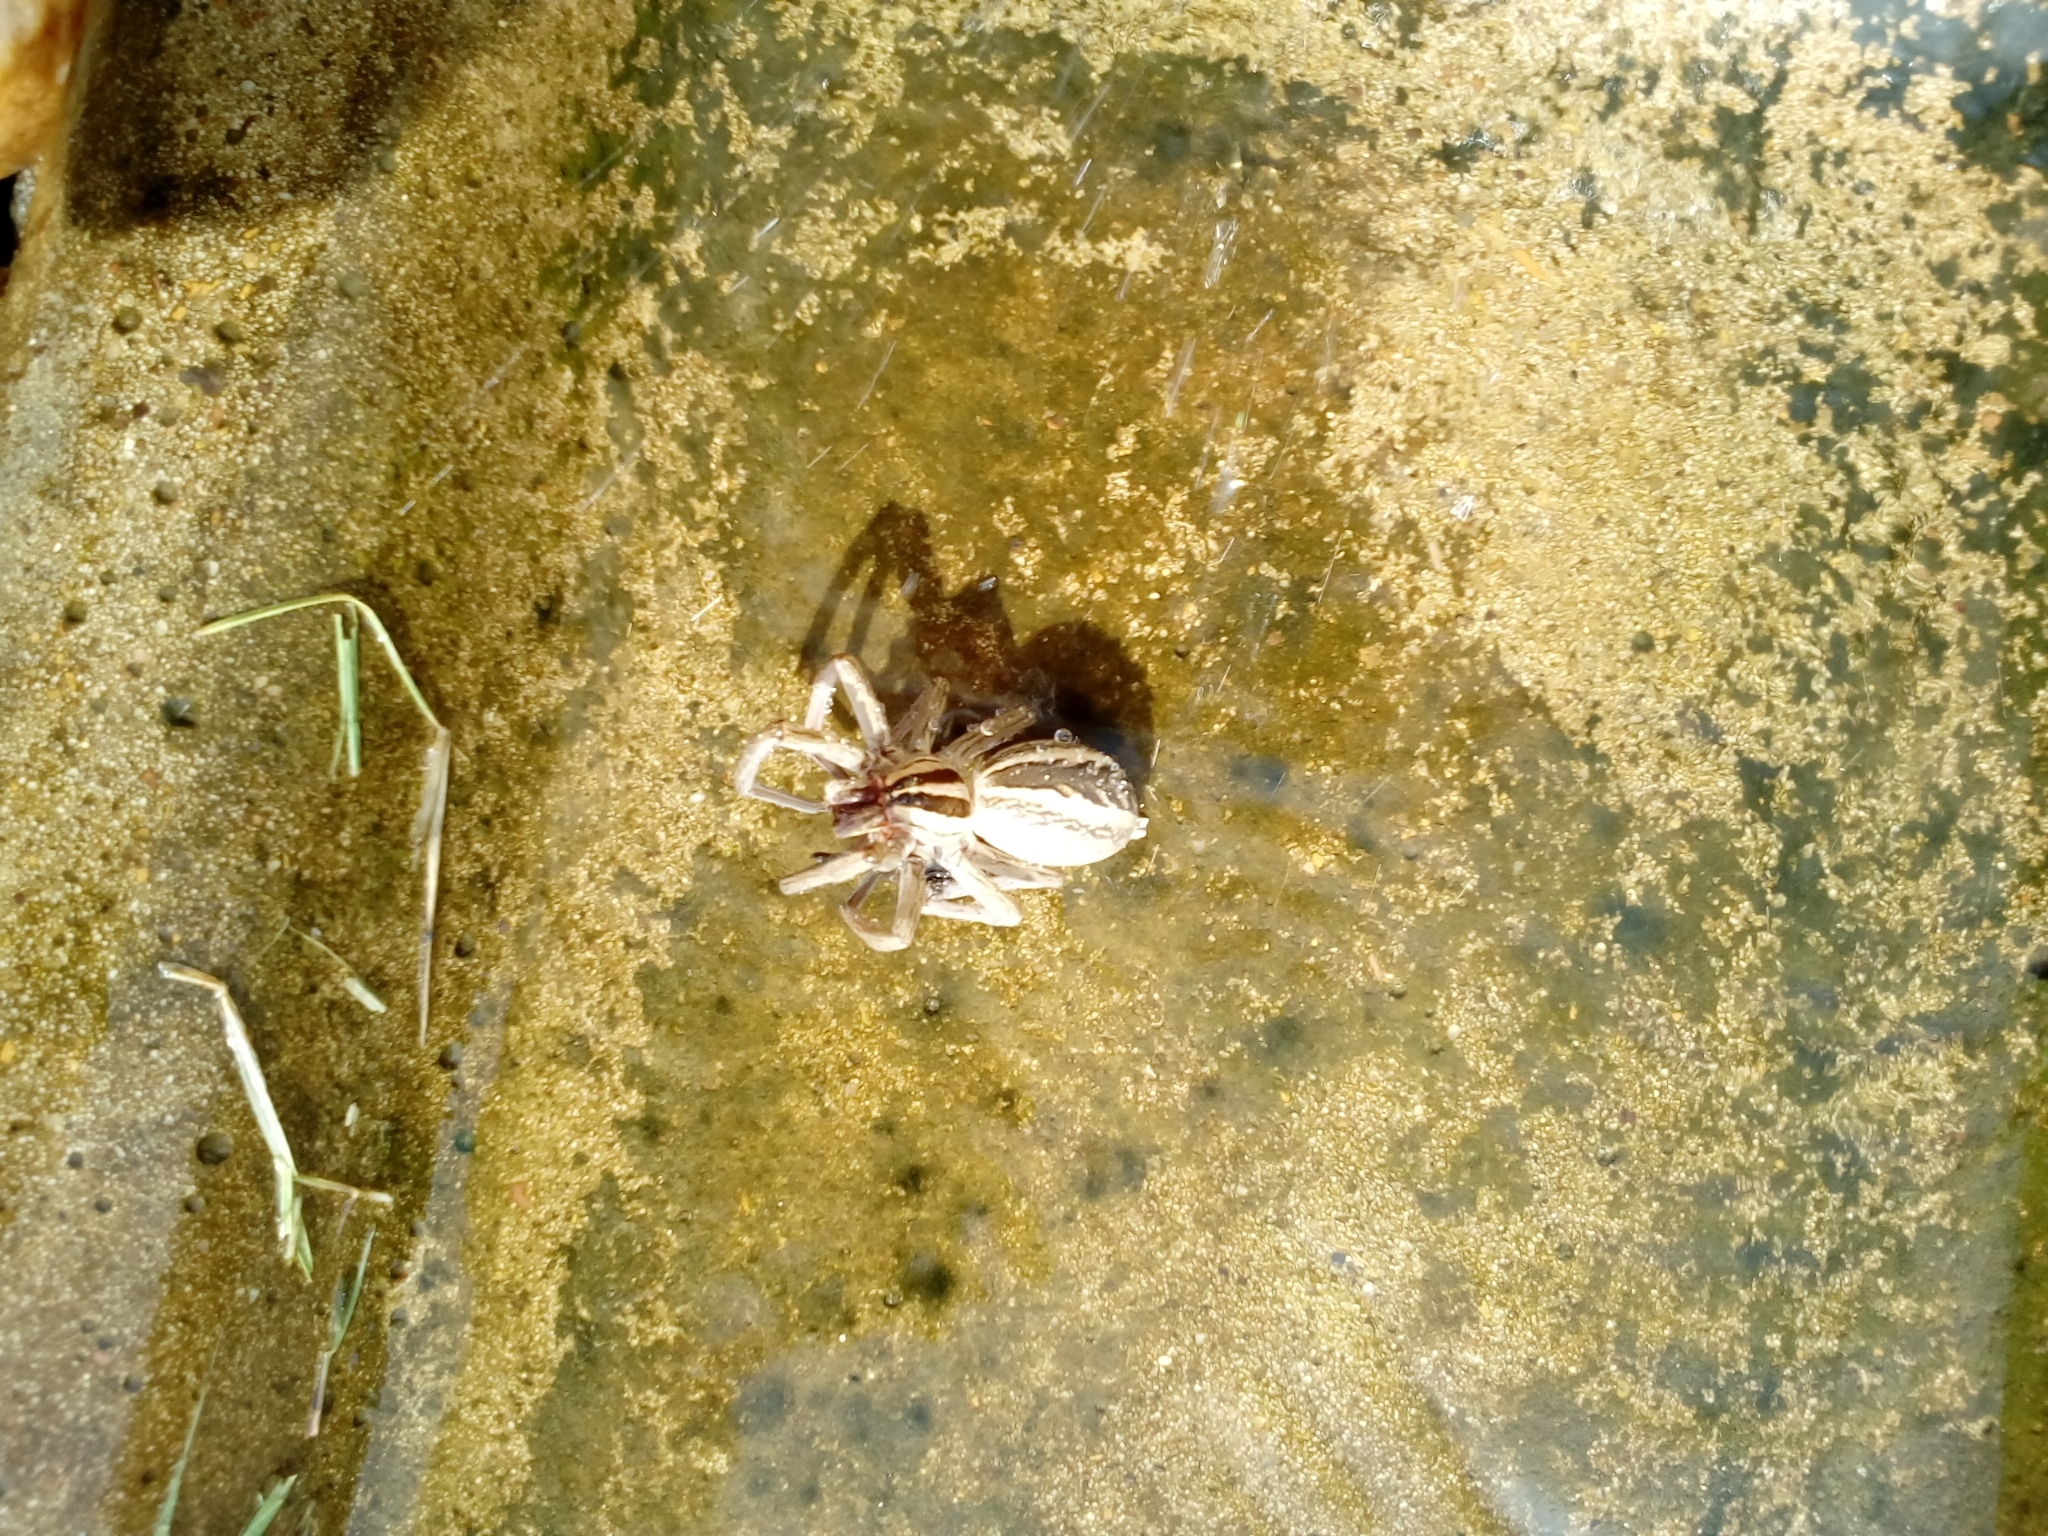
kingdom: Animalia
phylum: Arthropoda
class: Arachnida
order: Araneae
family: Lycosidae
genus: Rabidosa
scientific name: Rabidosa rabida
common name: Rabid wolf spider
